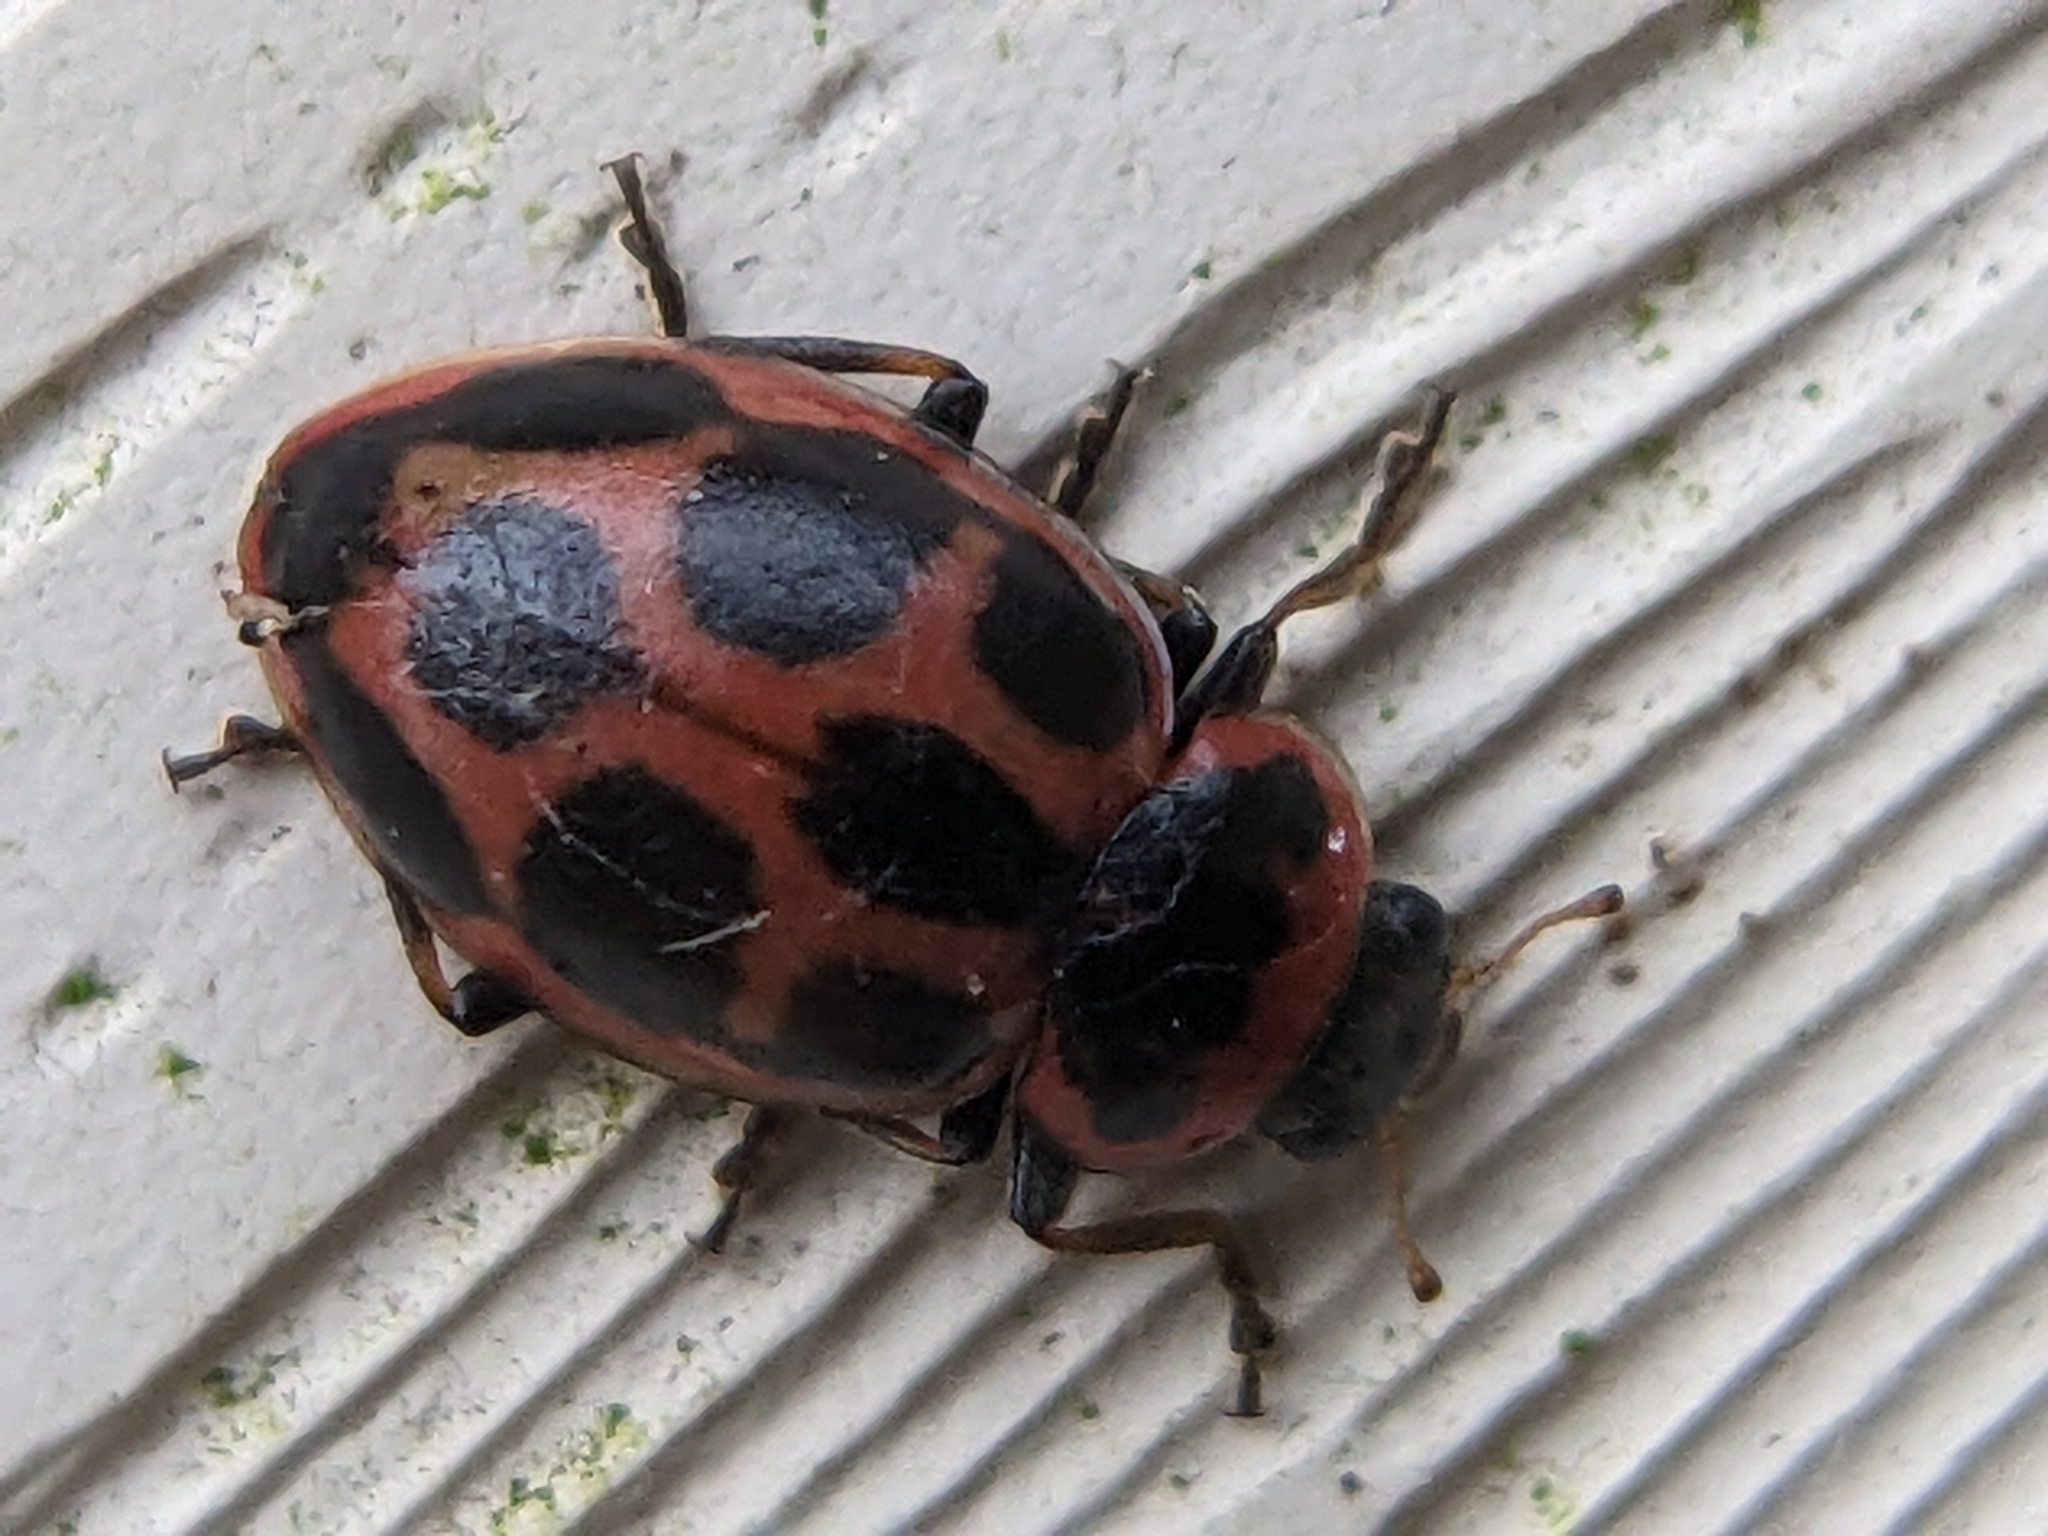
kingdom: Animalia
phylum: Arthropoda
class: Insecta
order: Coleoptera
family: Coccinellidae
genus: Naemia
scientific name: Naemia seriata
